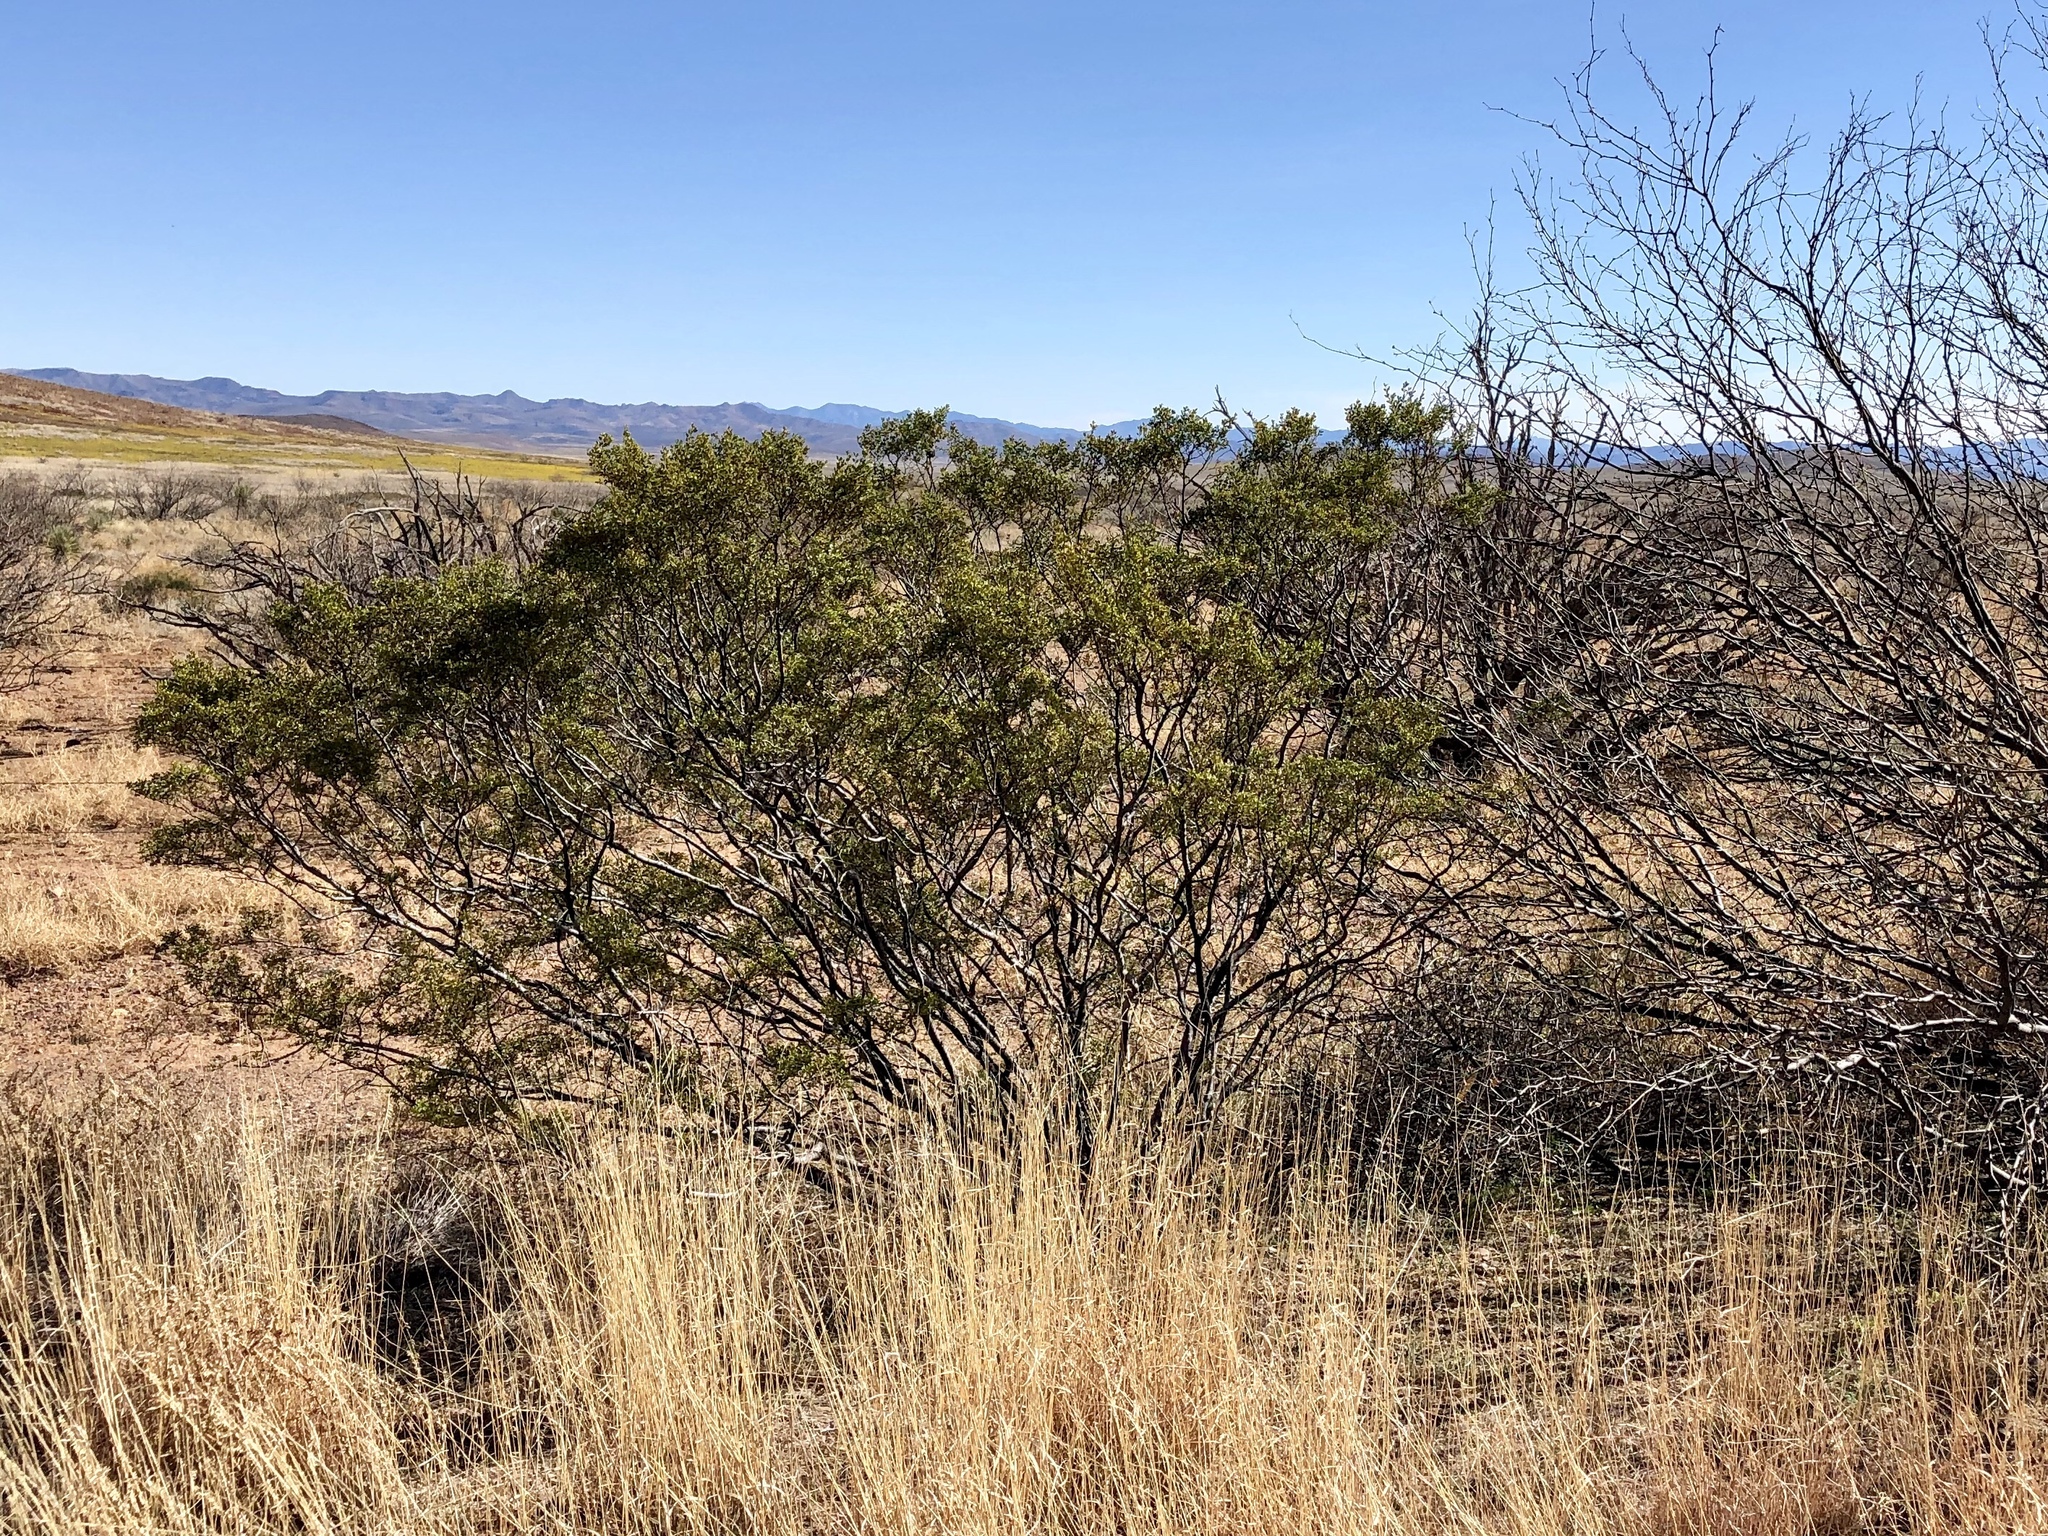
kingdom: Plantae
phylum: Tracheophyta
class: Magnoliopsida
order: Zygophyllales
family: Zygophyllaceae
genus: Larrea
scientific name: Larrea tridentata
